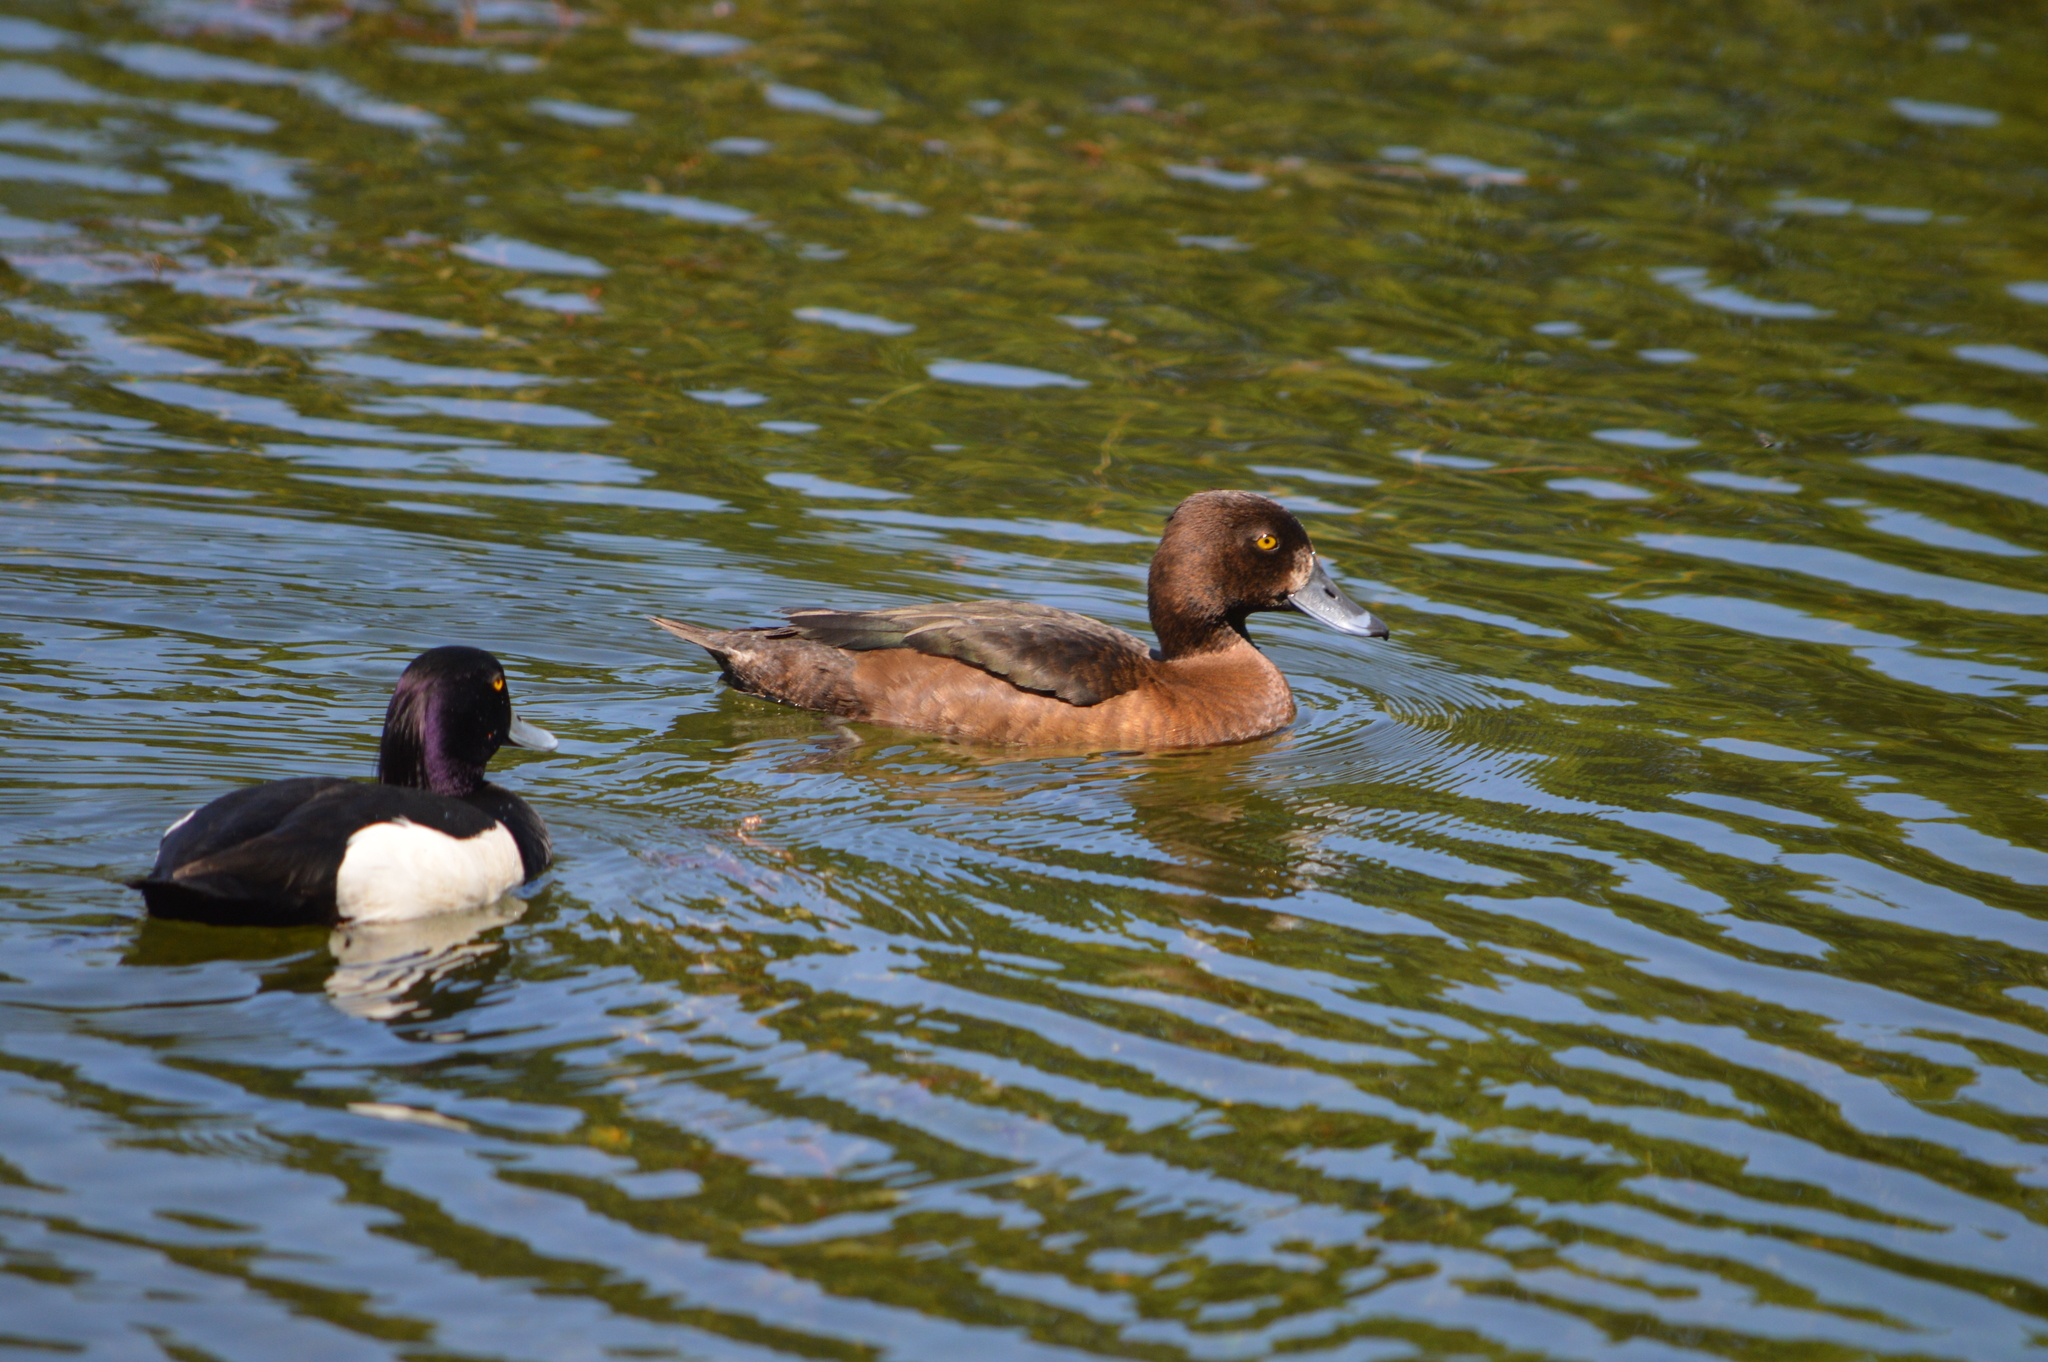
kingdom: Animalia
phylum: Chordata
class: Aves
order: Anseriformes
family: Anatidae
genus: Aythya
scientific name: Aythya fuligula
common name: Tufted duck
